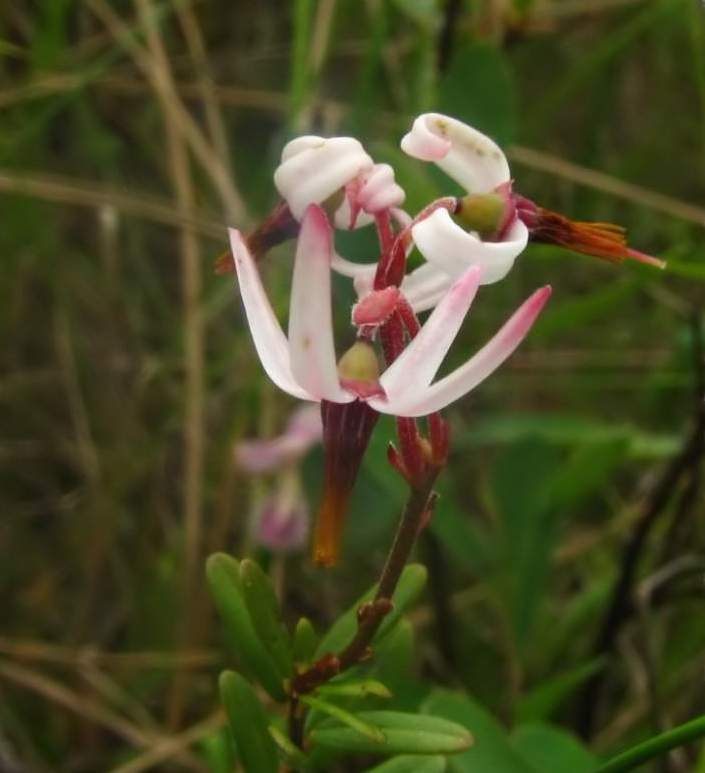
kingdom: Plantae
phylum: Tracheophyta
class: Magnoliopsida
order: Ericales
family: Ericaceae
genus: Vaccinium
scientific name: Vaccinium macrocarpon
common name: American cranberry
